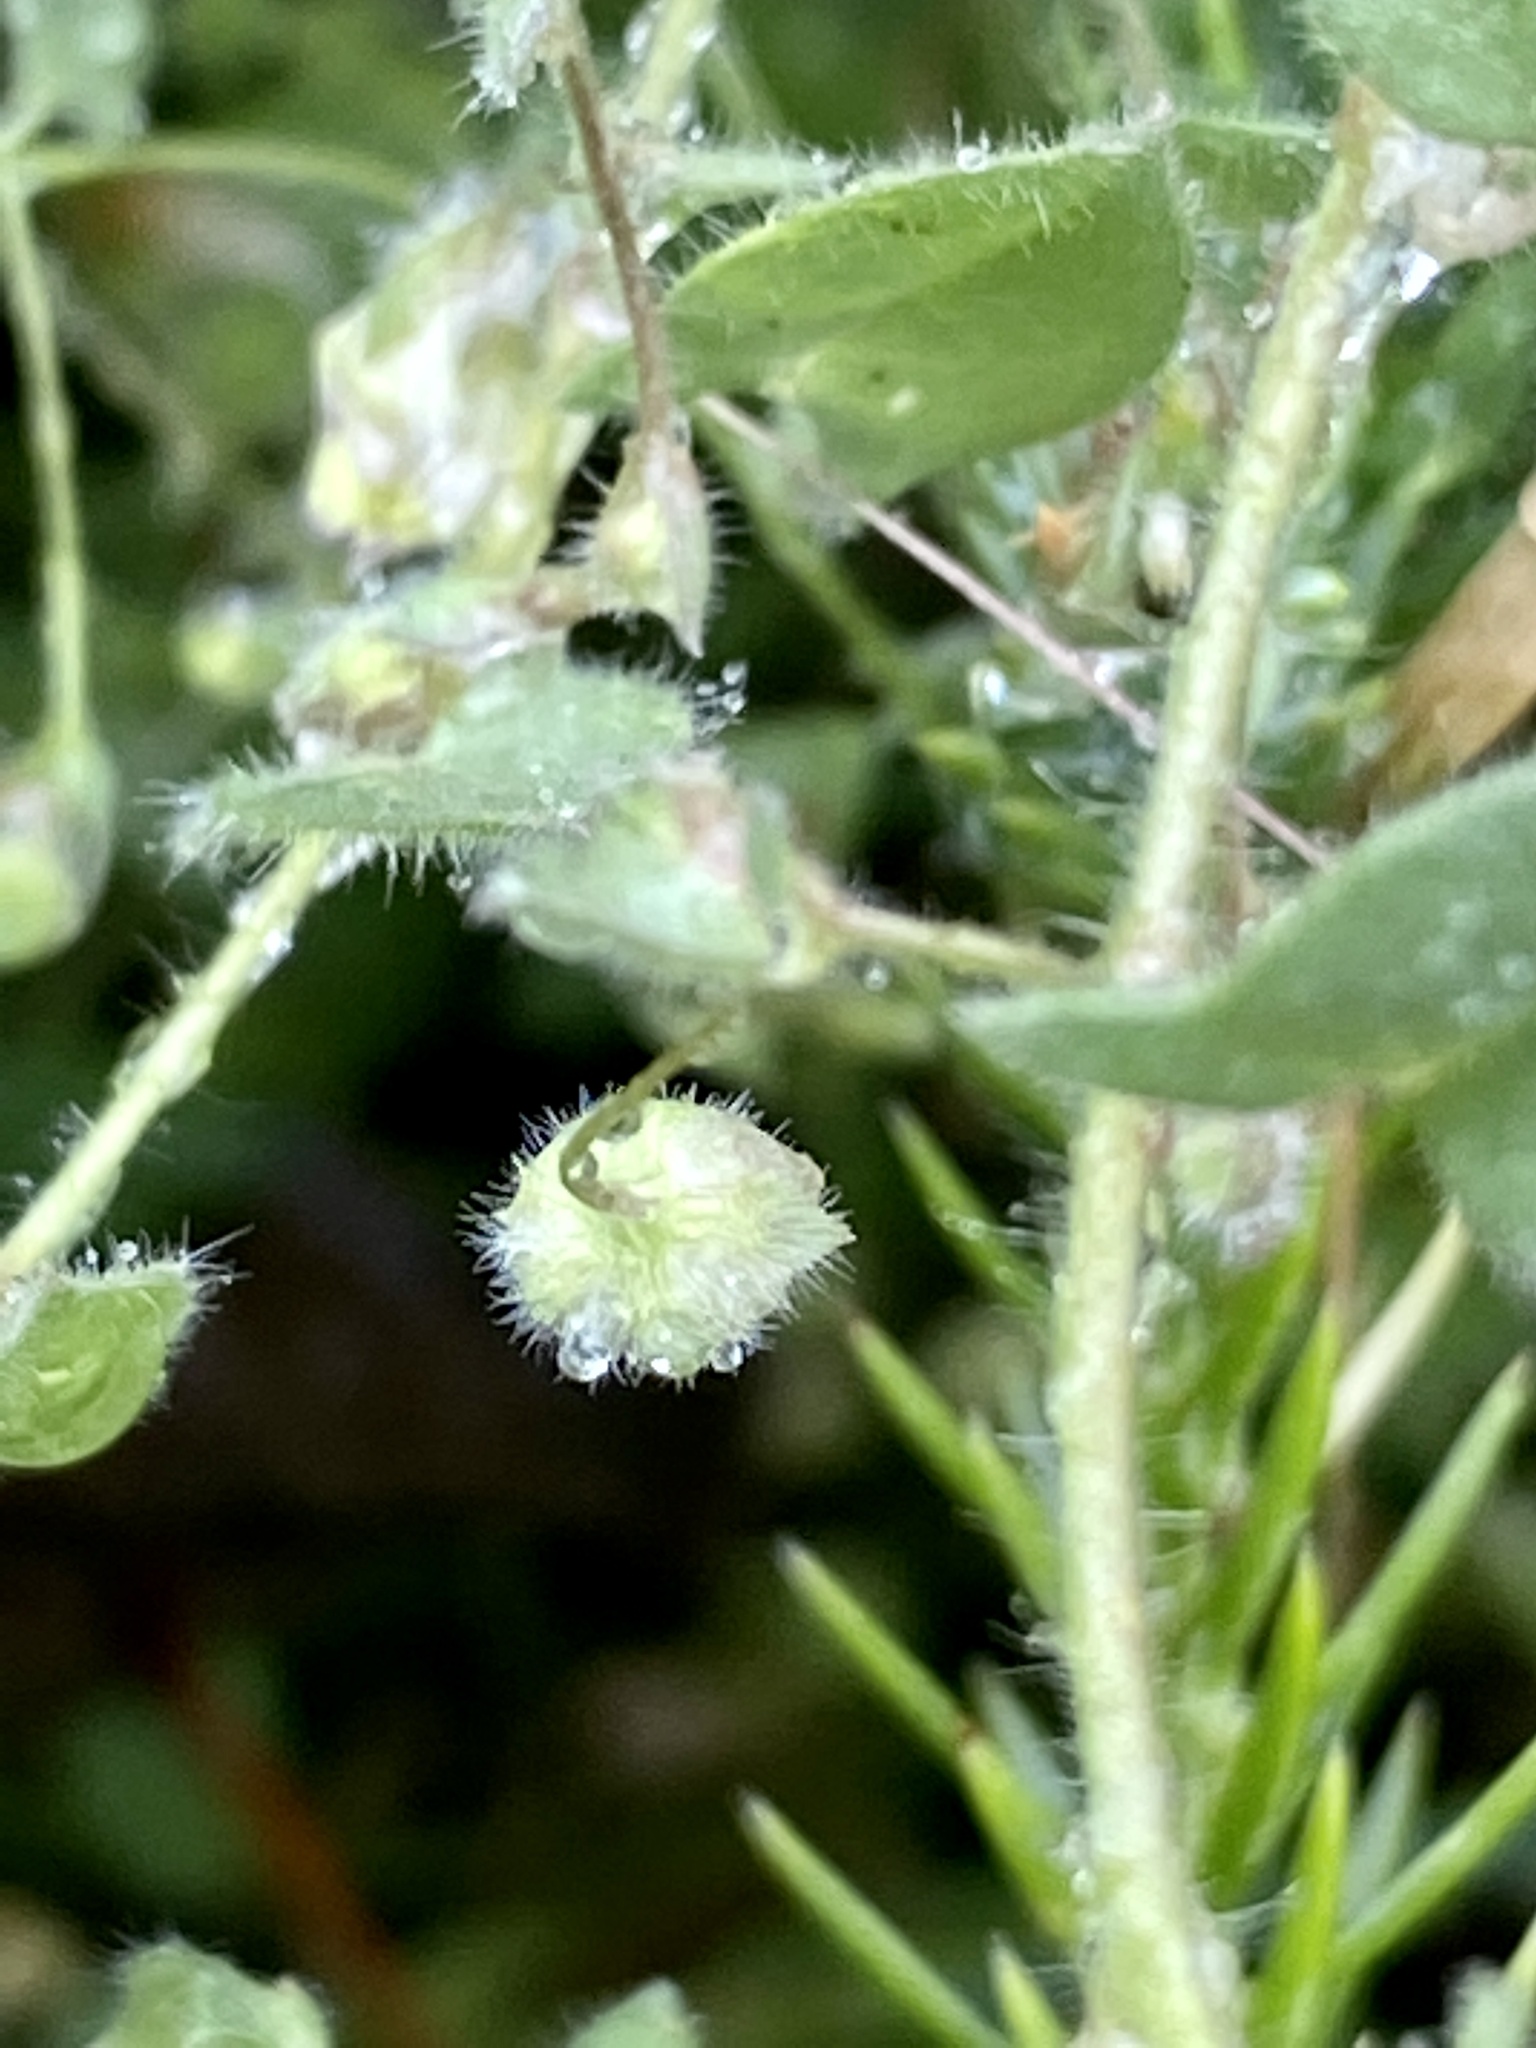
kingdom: Plantae
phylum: Tracheophyta
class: Magnoliopsida
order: Lamiales
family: Plantaginaceae
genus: Kickxia
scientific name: Kickxia elatine
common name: Sharp-leaved fluellen
